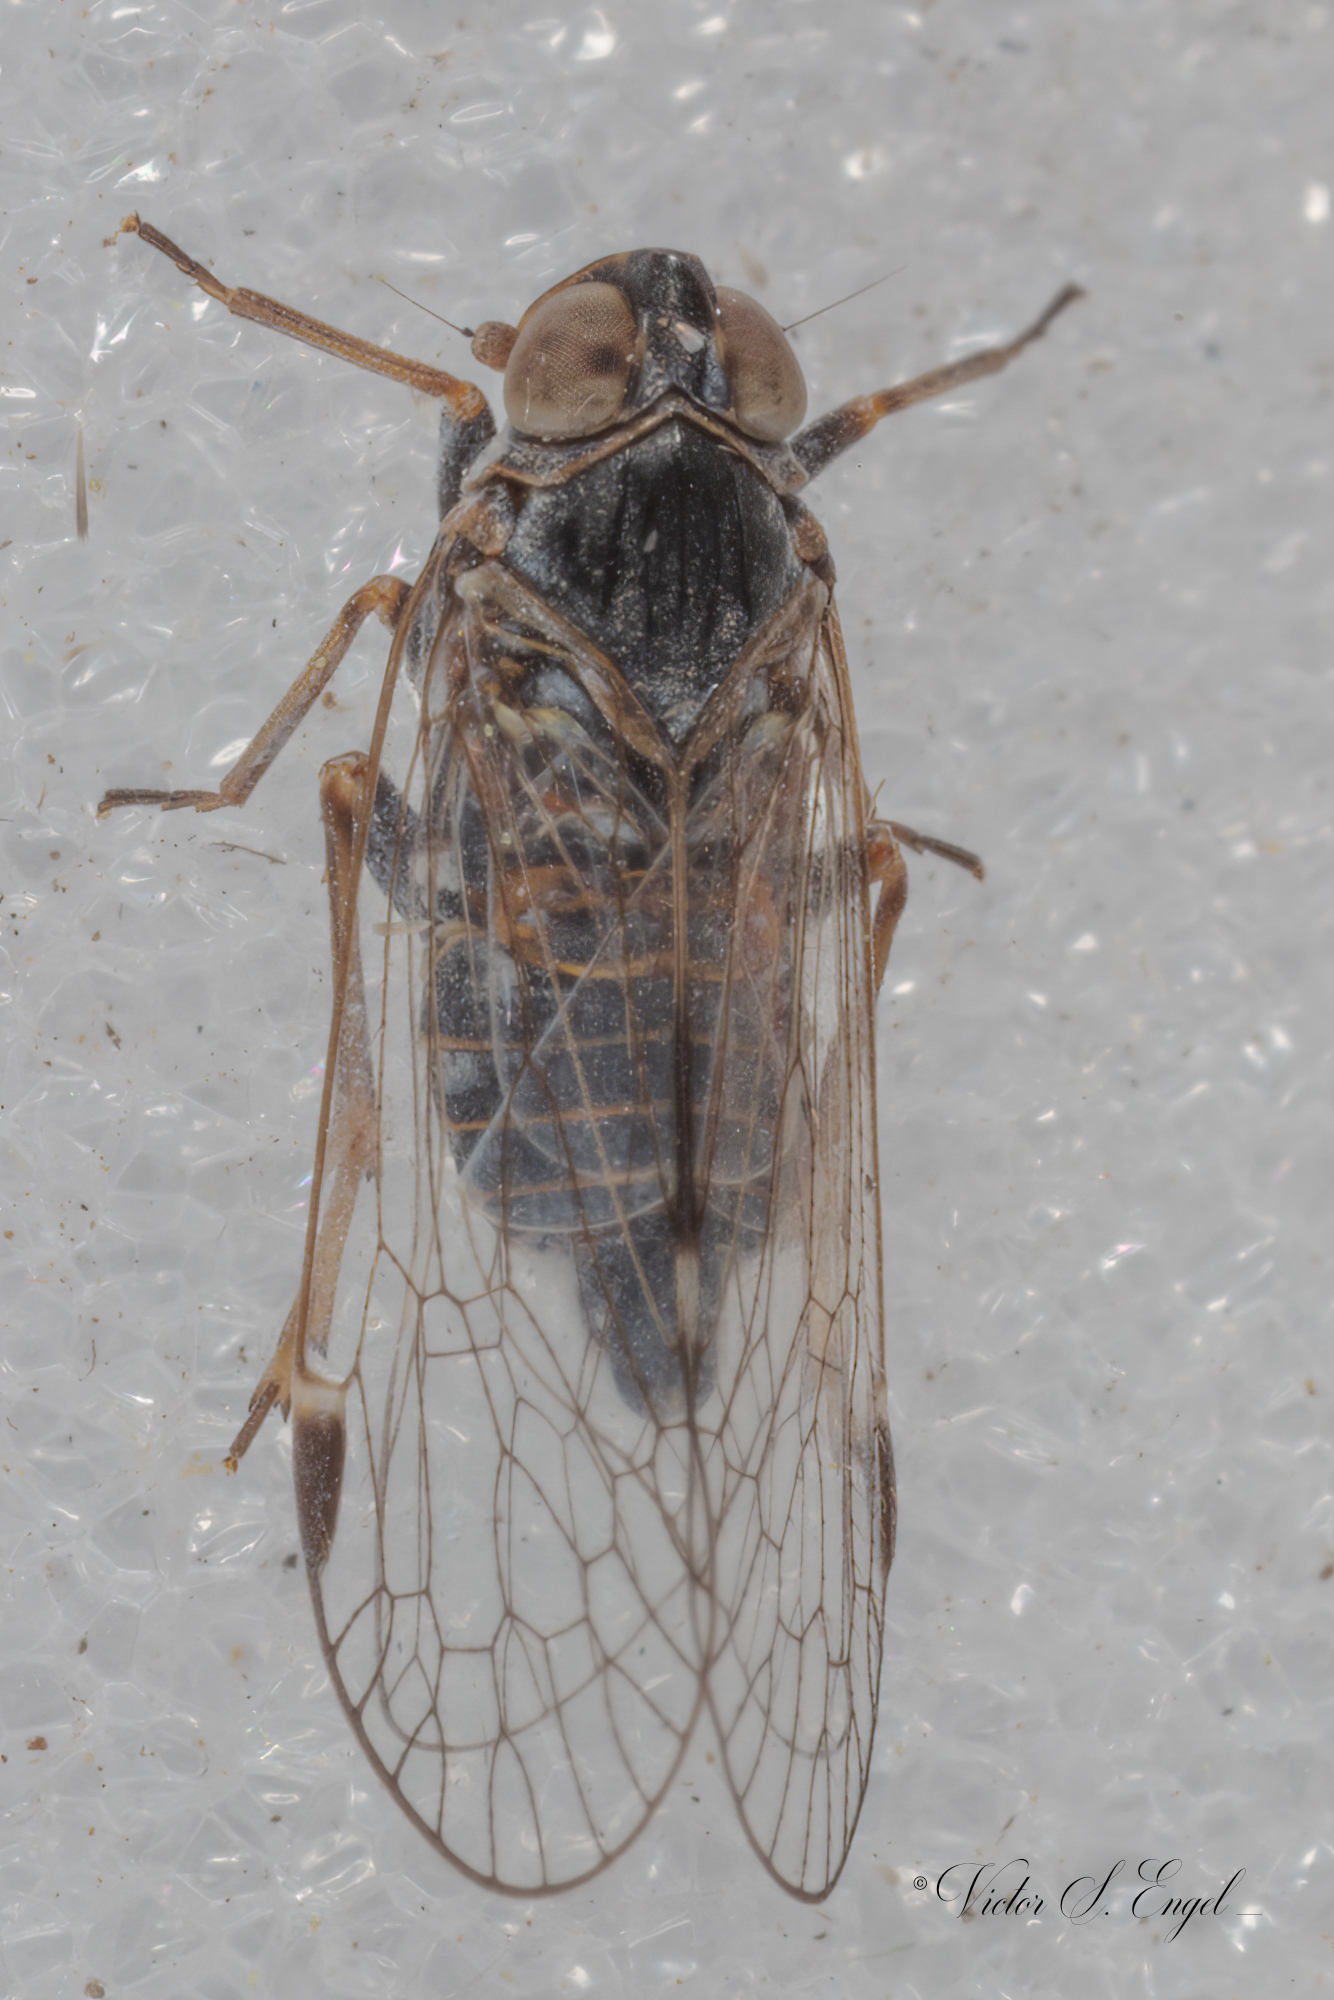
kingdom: Animalia
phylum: Arthropoda
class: Insecta
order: Hemiptera
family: Cixiidae
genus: Melanoliarus
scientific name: Melanoliarus acicus
